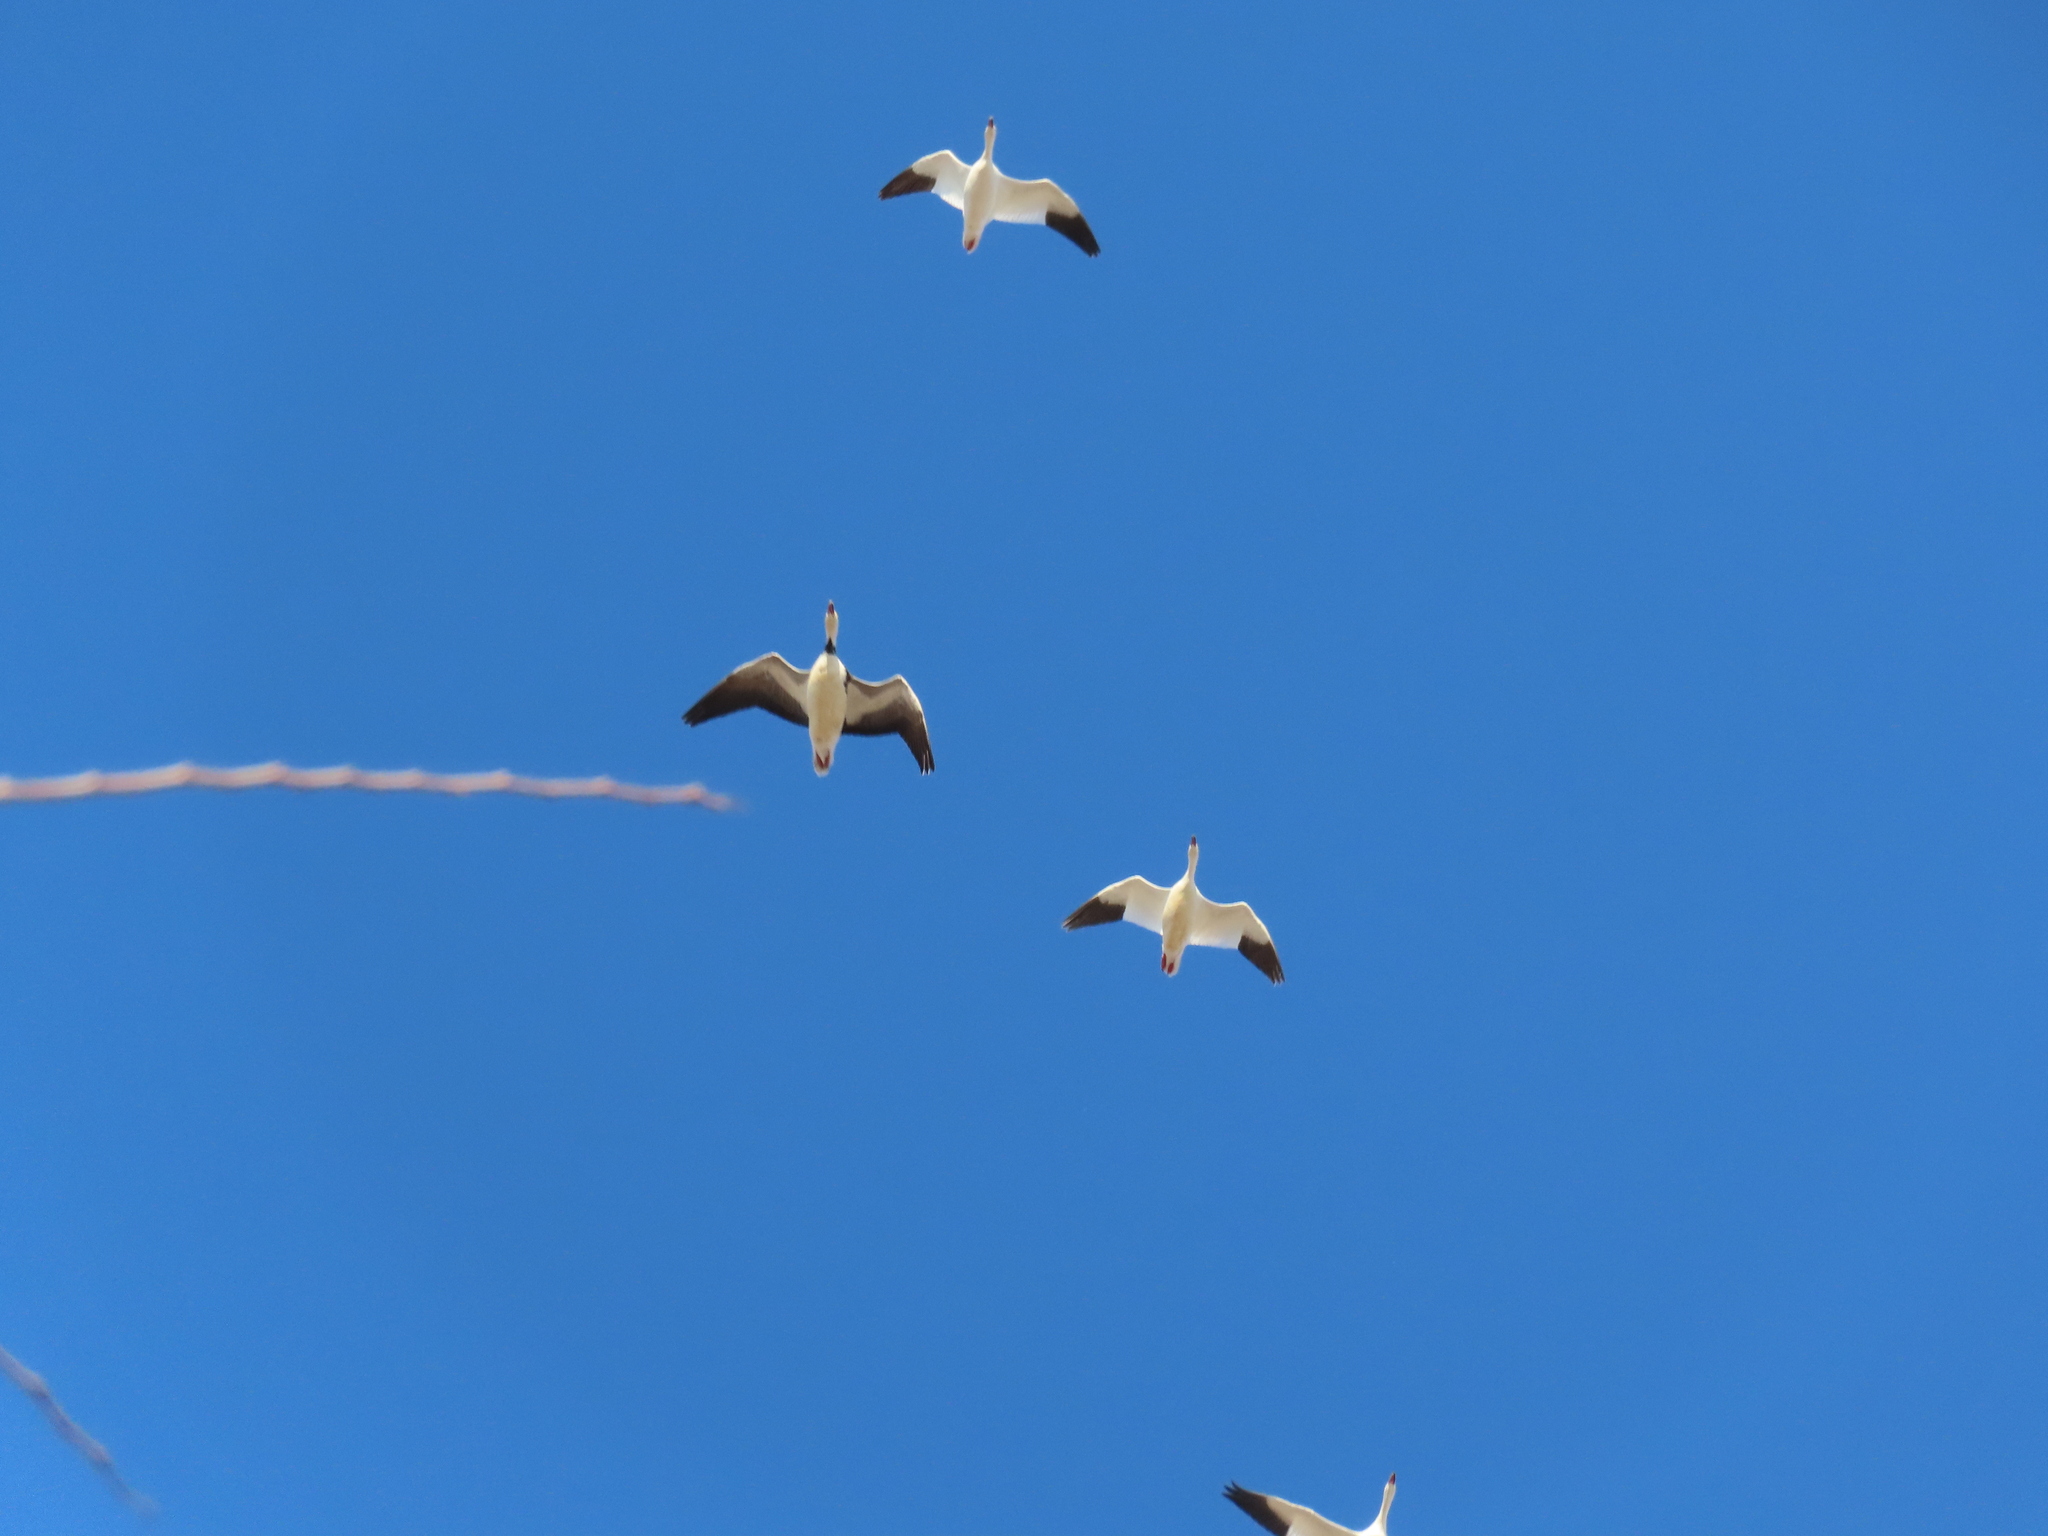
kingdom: Animalia
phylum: Chordata
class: Aves
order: Anseriformes
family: Anatidae
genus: Anser
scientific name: Anser caerulescens
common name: Snow goose
